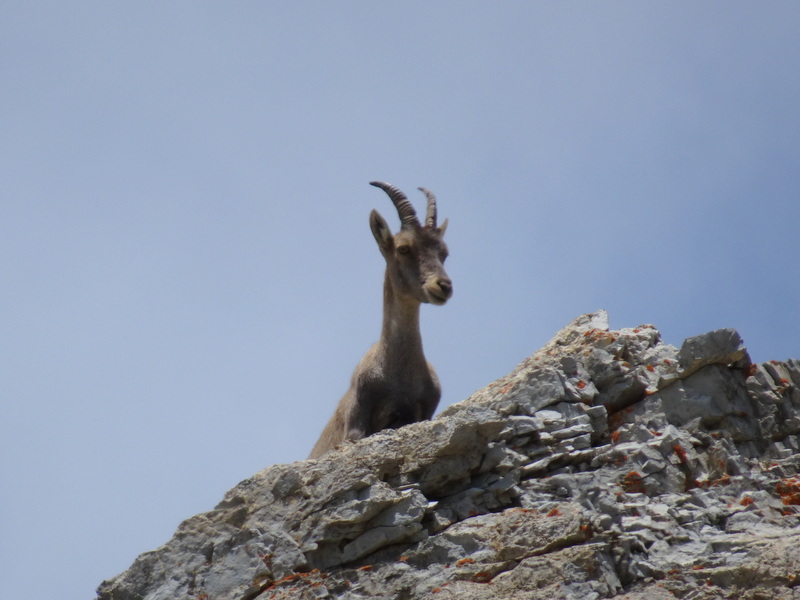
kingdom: Animalia
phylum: Chordata
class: Mammalia
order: Artiodactyla
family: Bovidae
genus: Capra
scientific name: Capra ibex
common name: Alpine ibex
